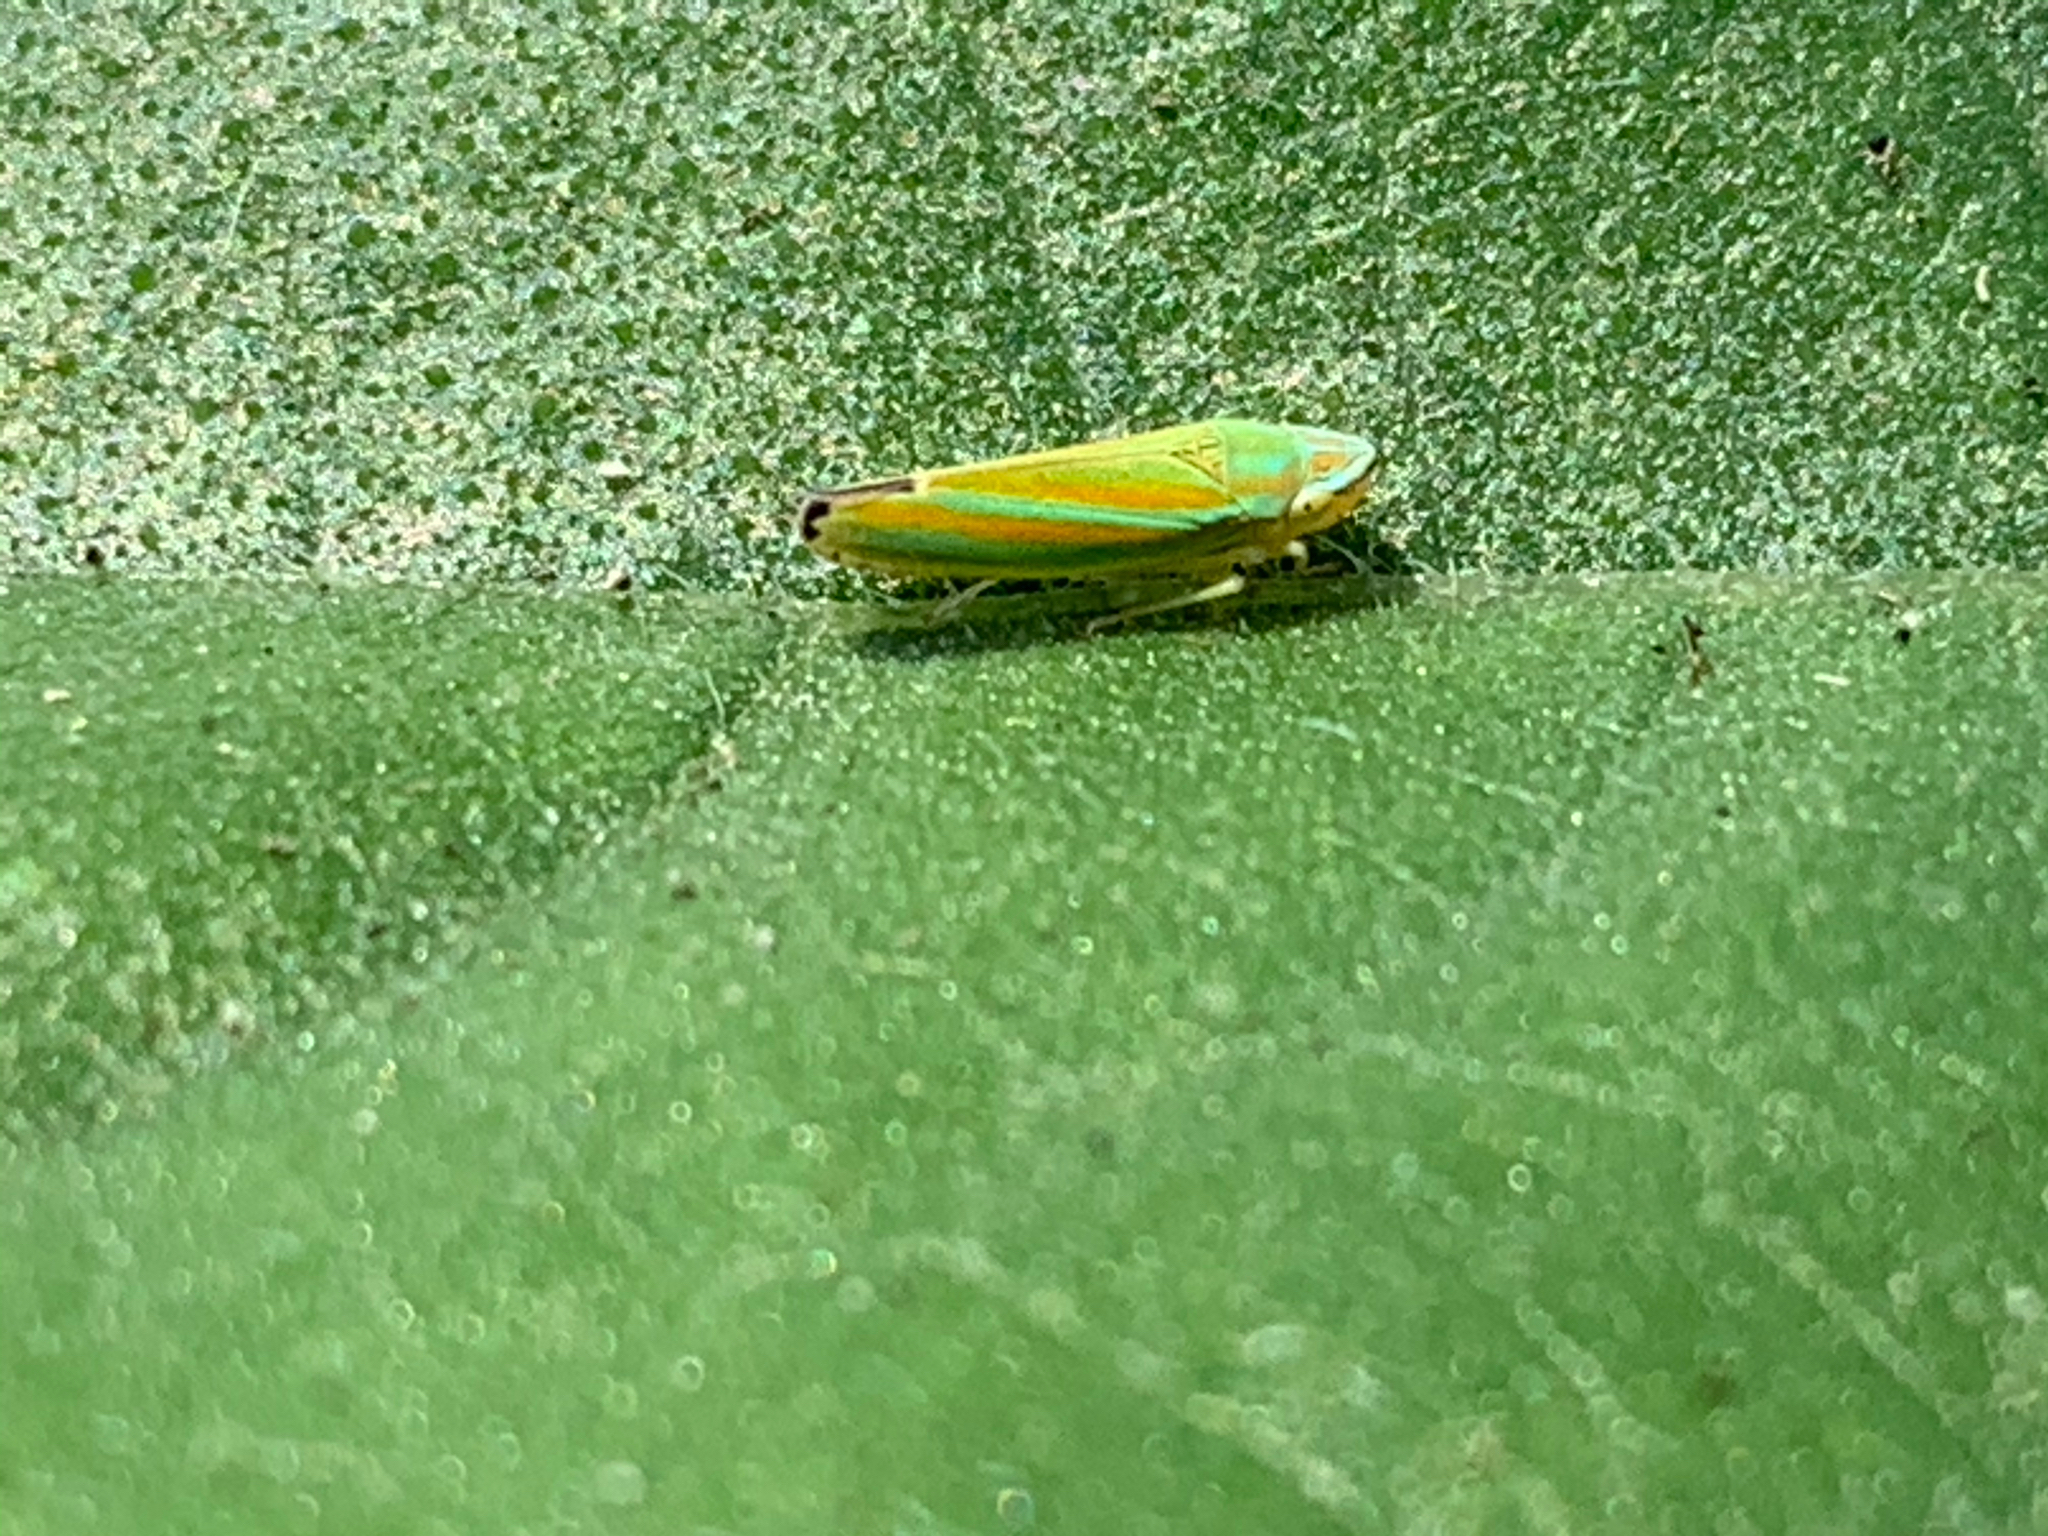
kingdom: Animalia
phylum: Arthropoda
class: Insecta
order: Hemiptera
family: Cicadellidae
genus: Graphocephala
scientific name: Graphocephala versuta
